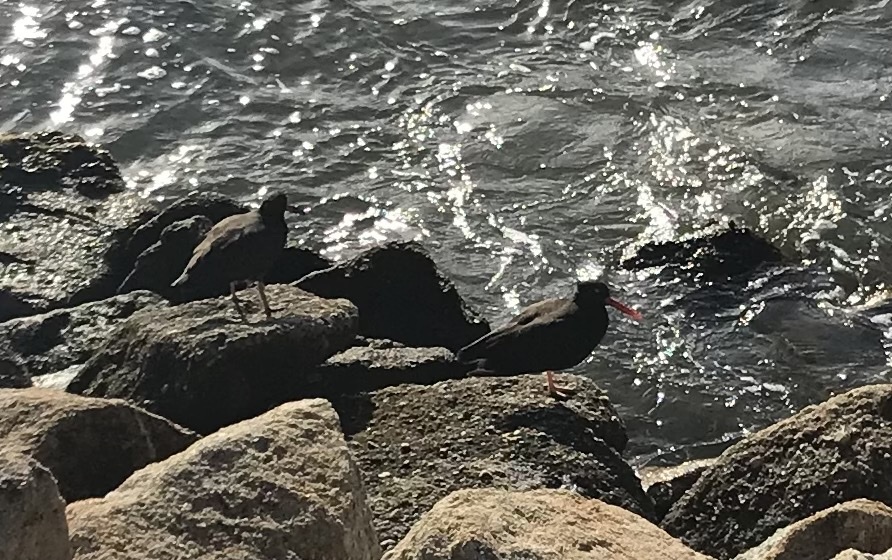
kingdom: Animalia
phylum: Chordata
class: Aves
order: Charadriiformes
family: Haematopodidae
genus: Haematopus
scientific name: Haematopus bachmani
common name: Black oystercatcher
